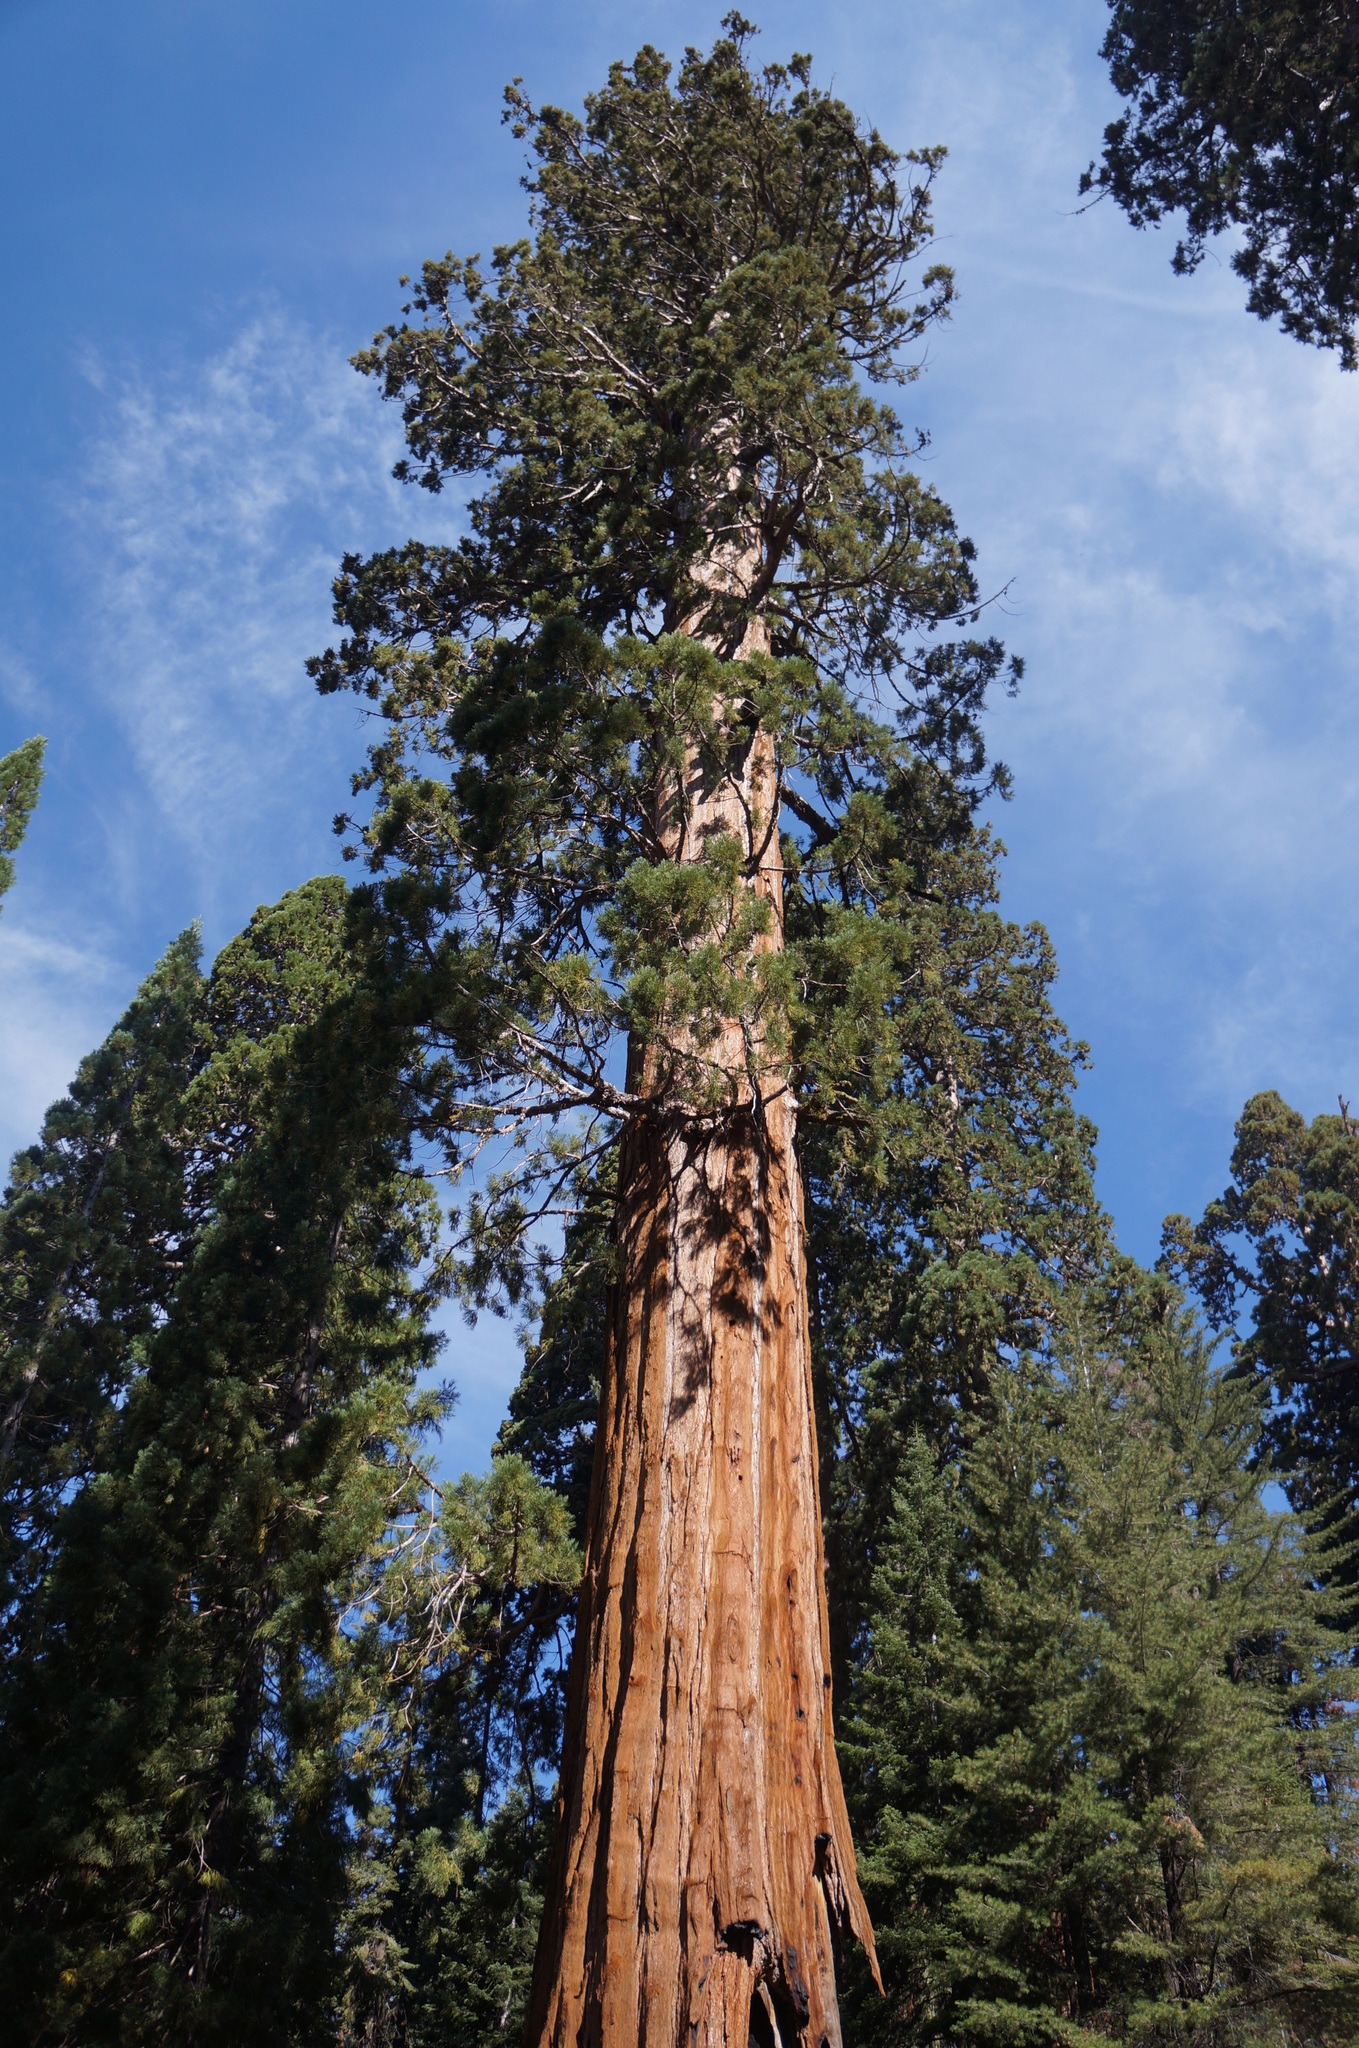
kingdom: Plantae
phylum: Tracheophyta
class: Pinopsida
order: Pinales
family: Cupressaceae
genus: Sequoiadendron
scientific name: Sequoiadendron giganteum
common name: Wellingtonia
